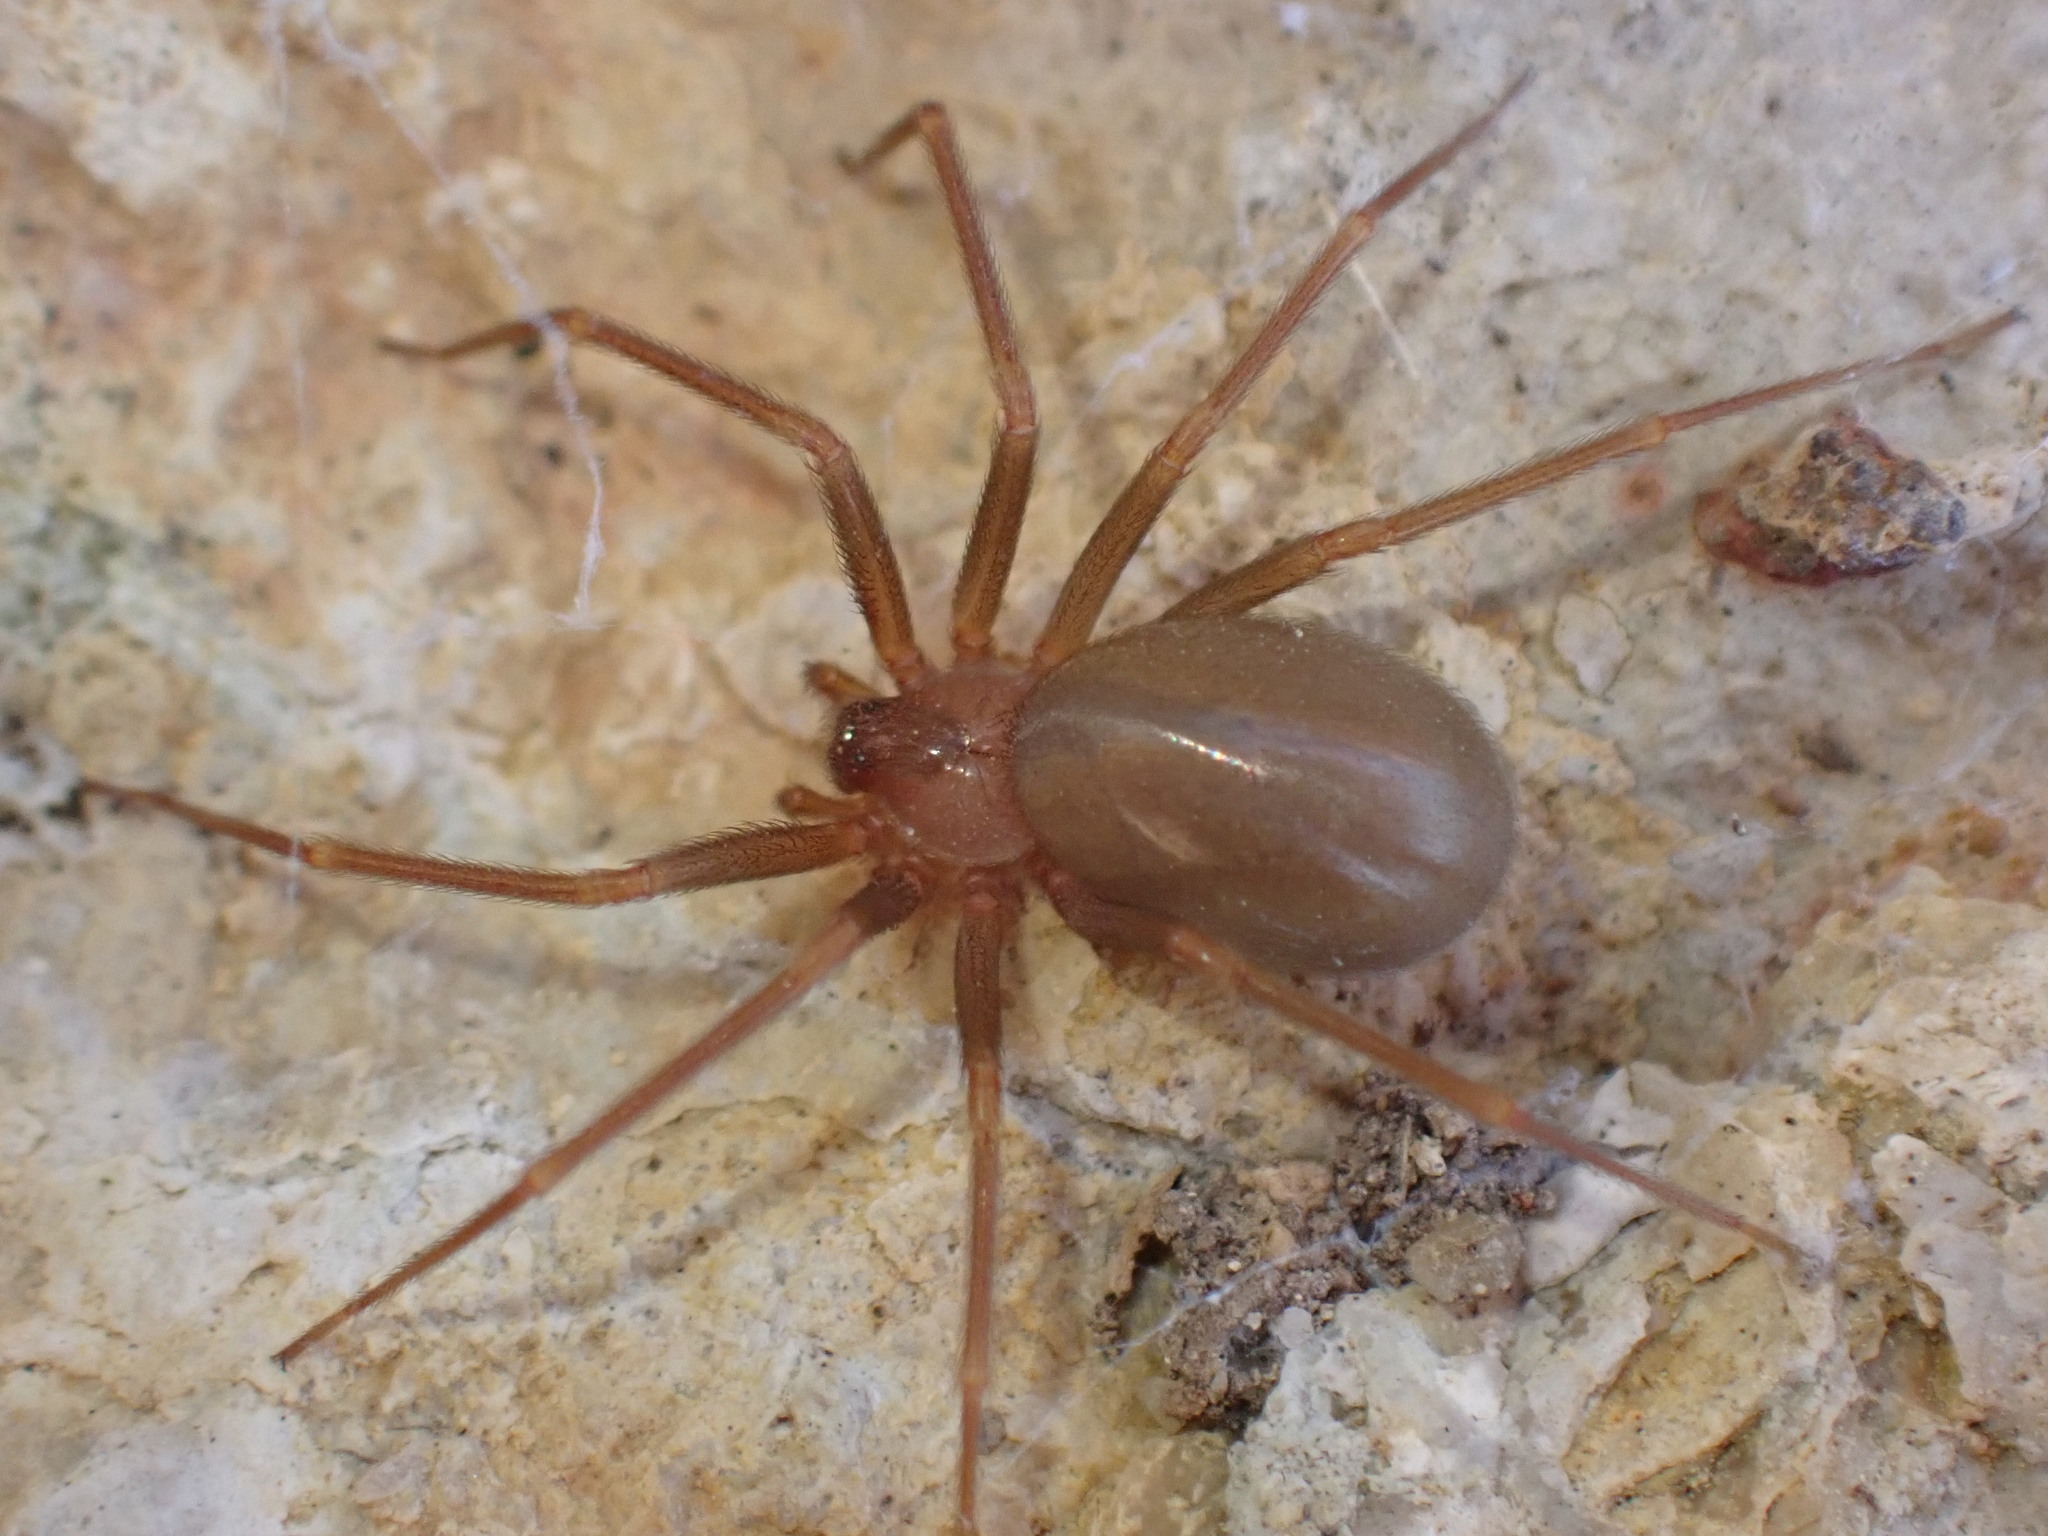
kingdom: Animalia
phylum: Arthropoda
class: Arachnida
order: Araneae
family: Sicariidae
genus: Loxosceles
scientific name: Loxosceles rufescens
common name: Mediterranean recluse spider
